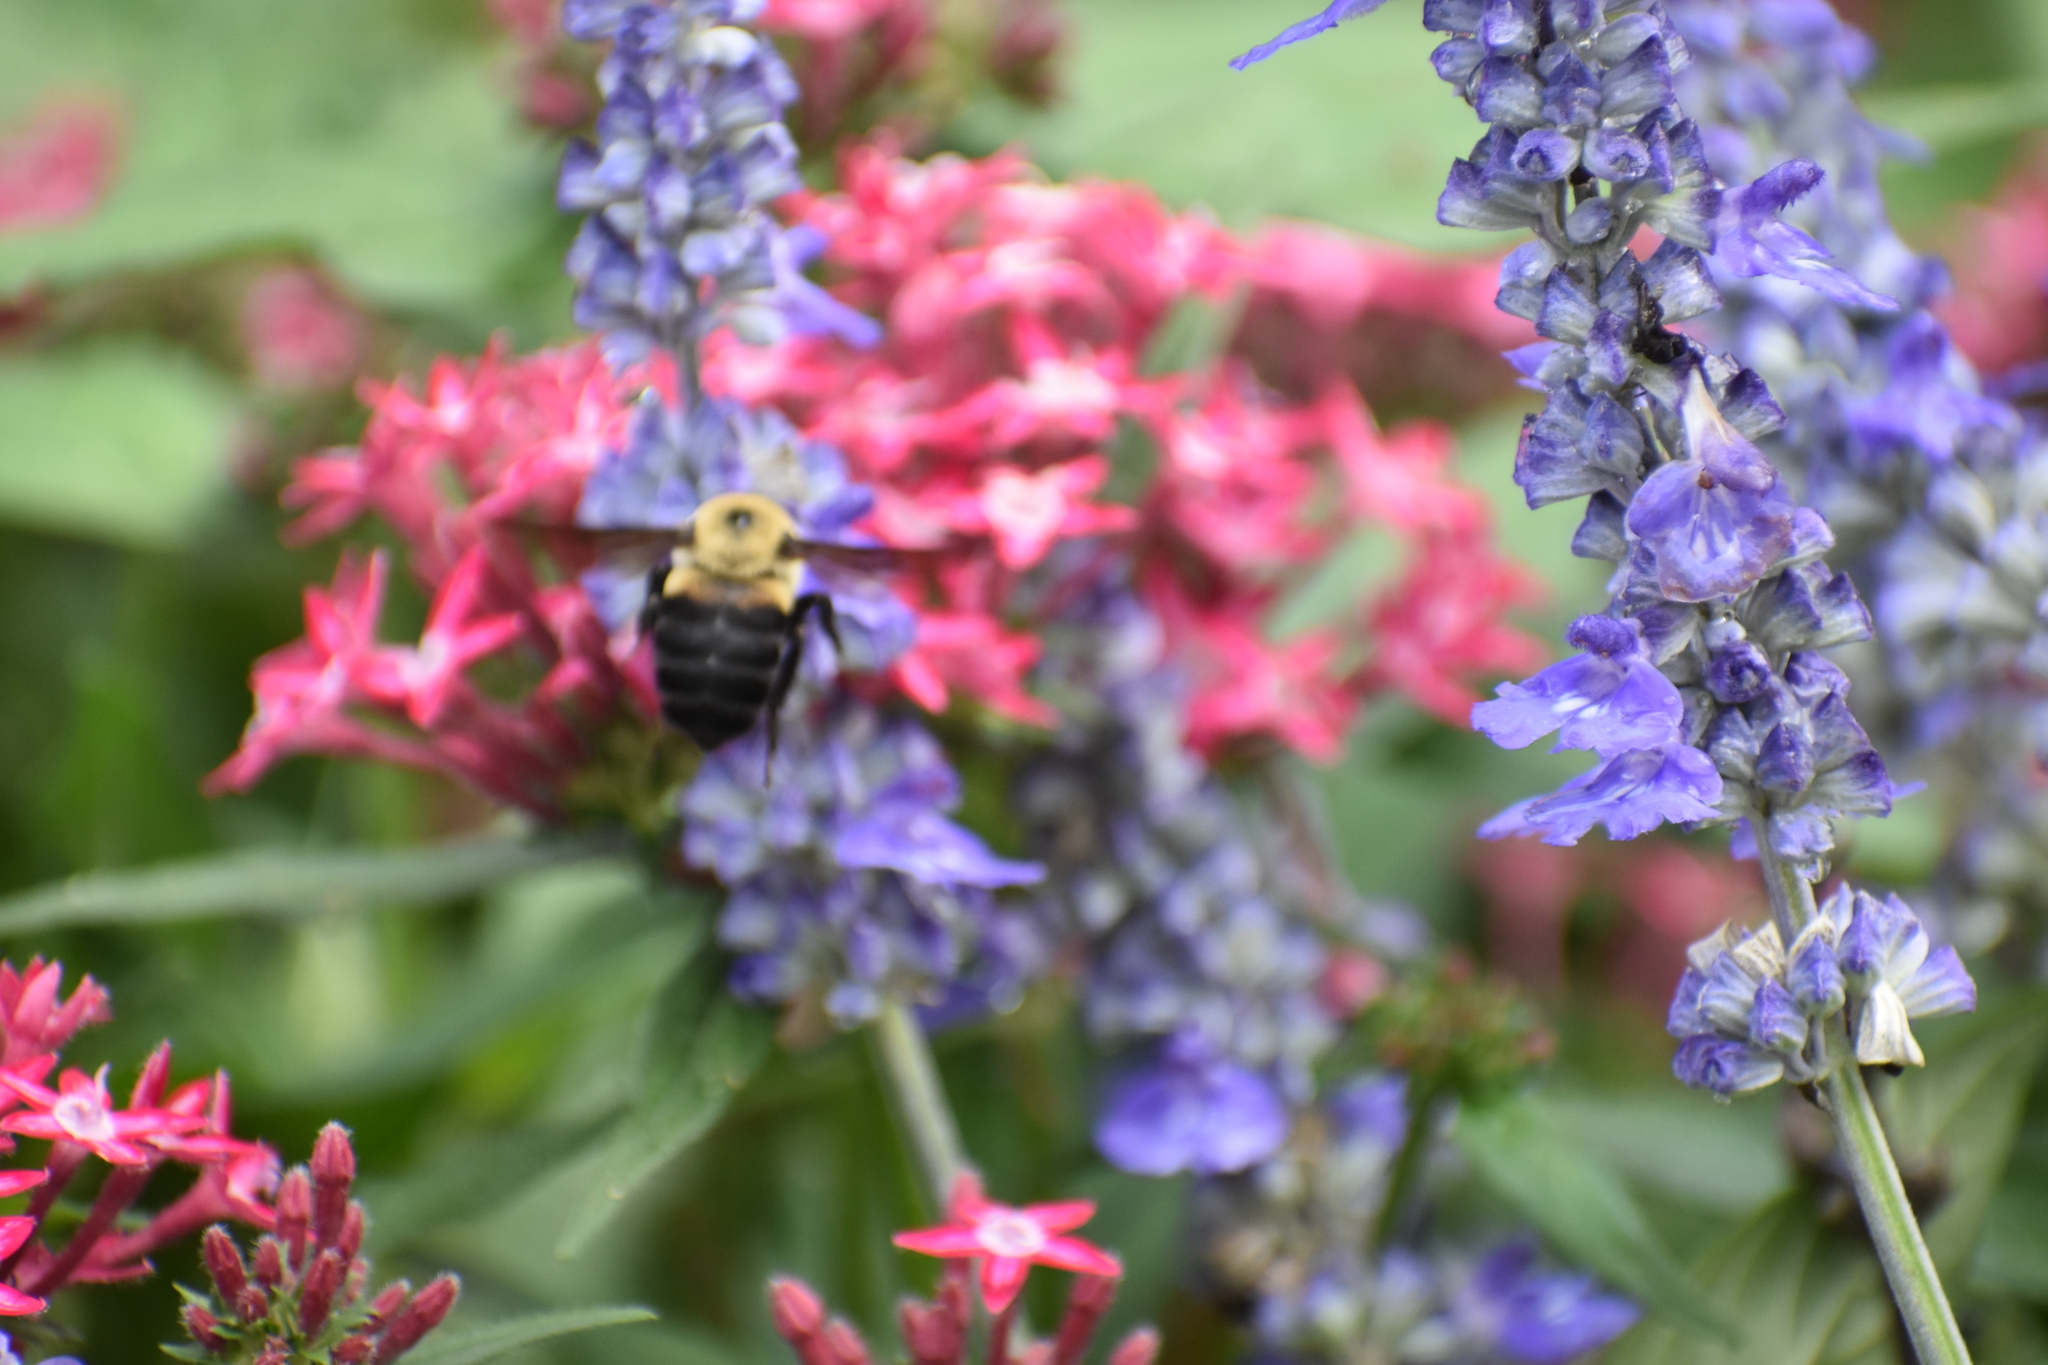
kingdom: Animalia
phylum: Arthropoda
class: Insecta
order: Hymenoptera
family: Apidae
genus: Bombus
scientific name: Bombus griseocollis
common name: Brown-belted bumble bee
